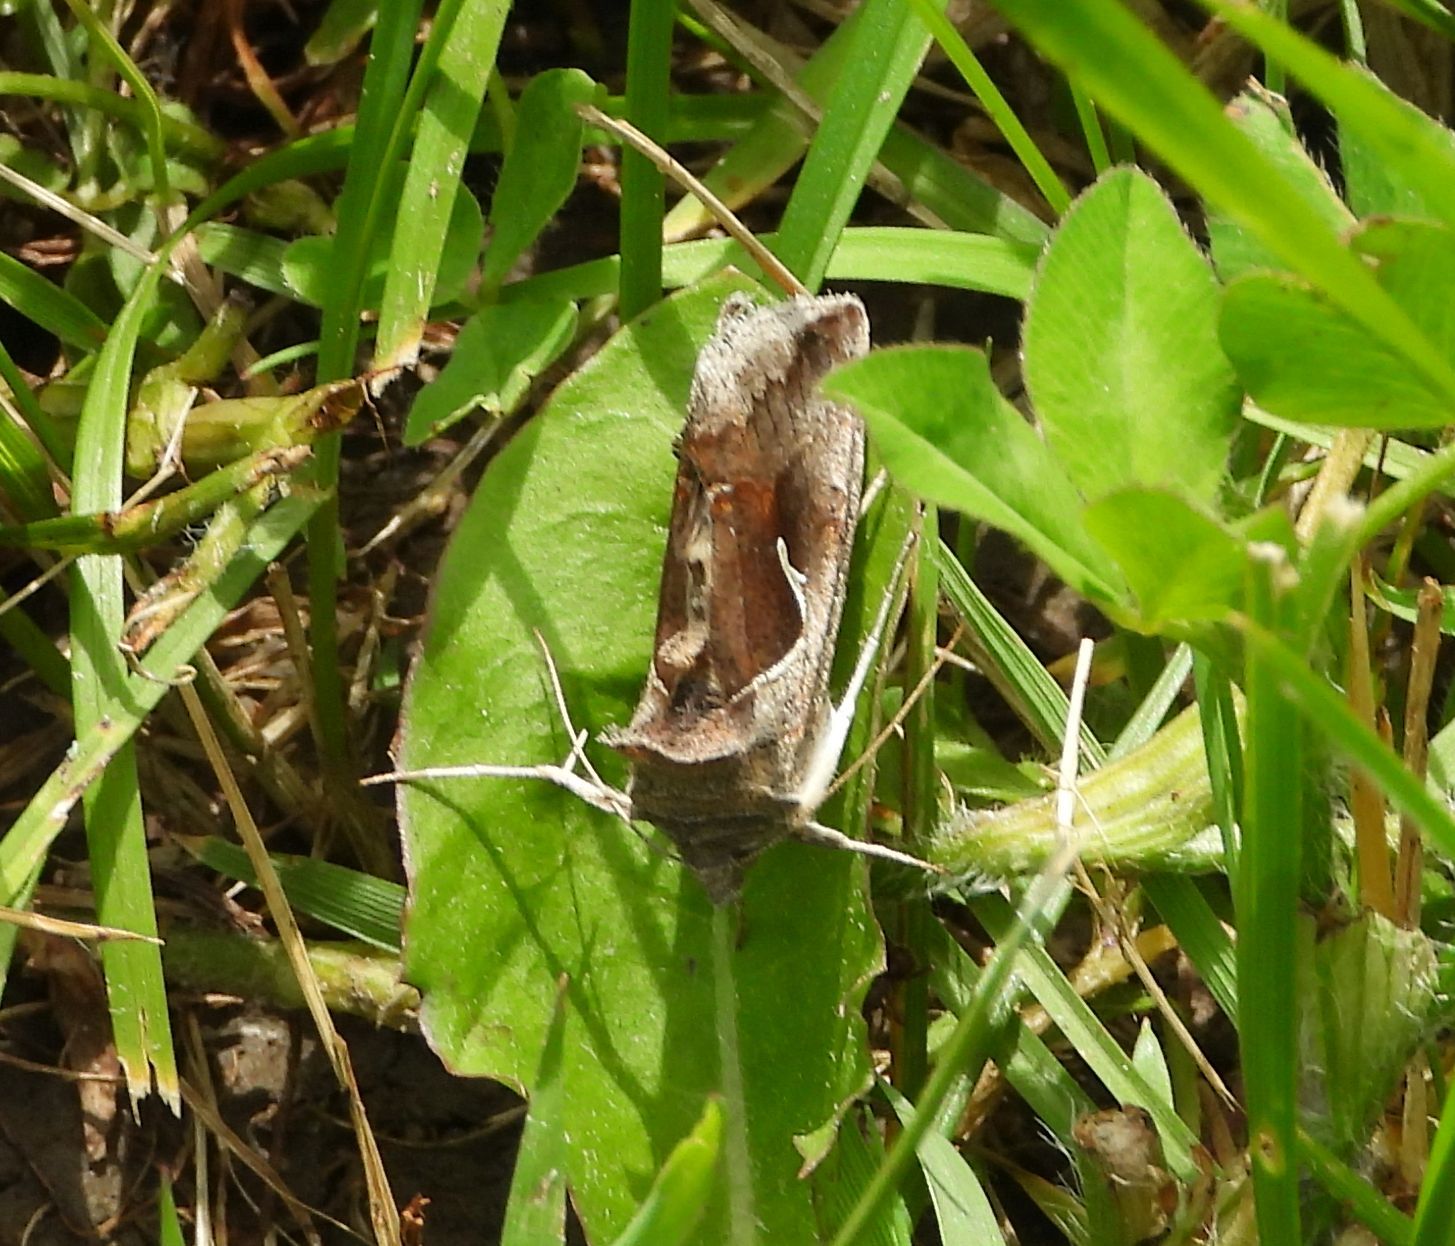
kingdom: Animalia
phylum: Arthropoda
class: Insecta
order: Lepidoptera
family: Noctuidae
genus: Anagrapha
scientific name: Anagrapha falcifera
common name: Celery looper
